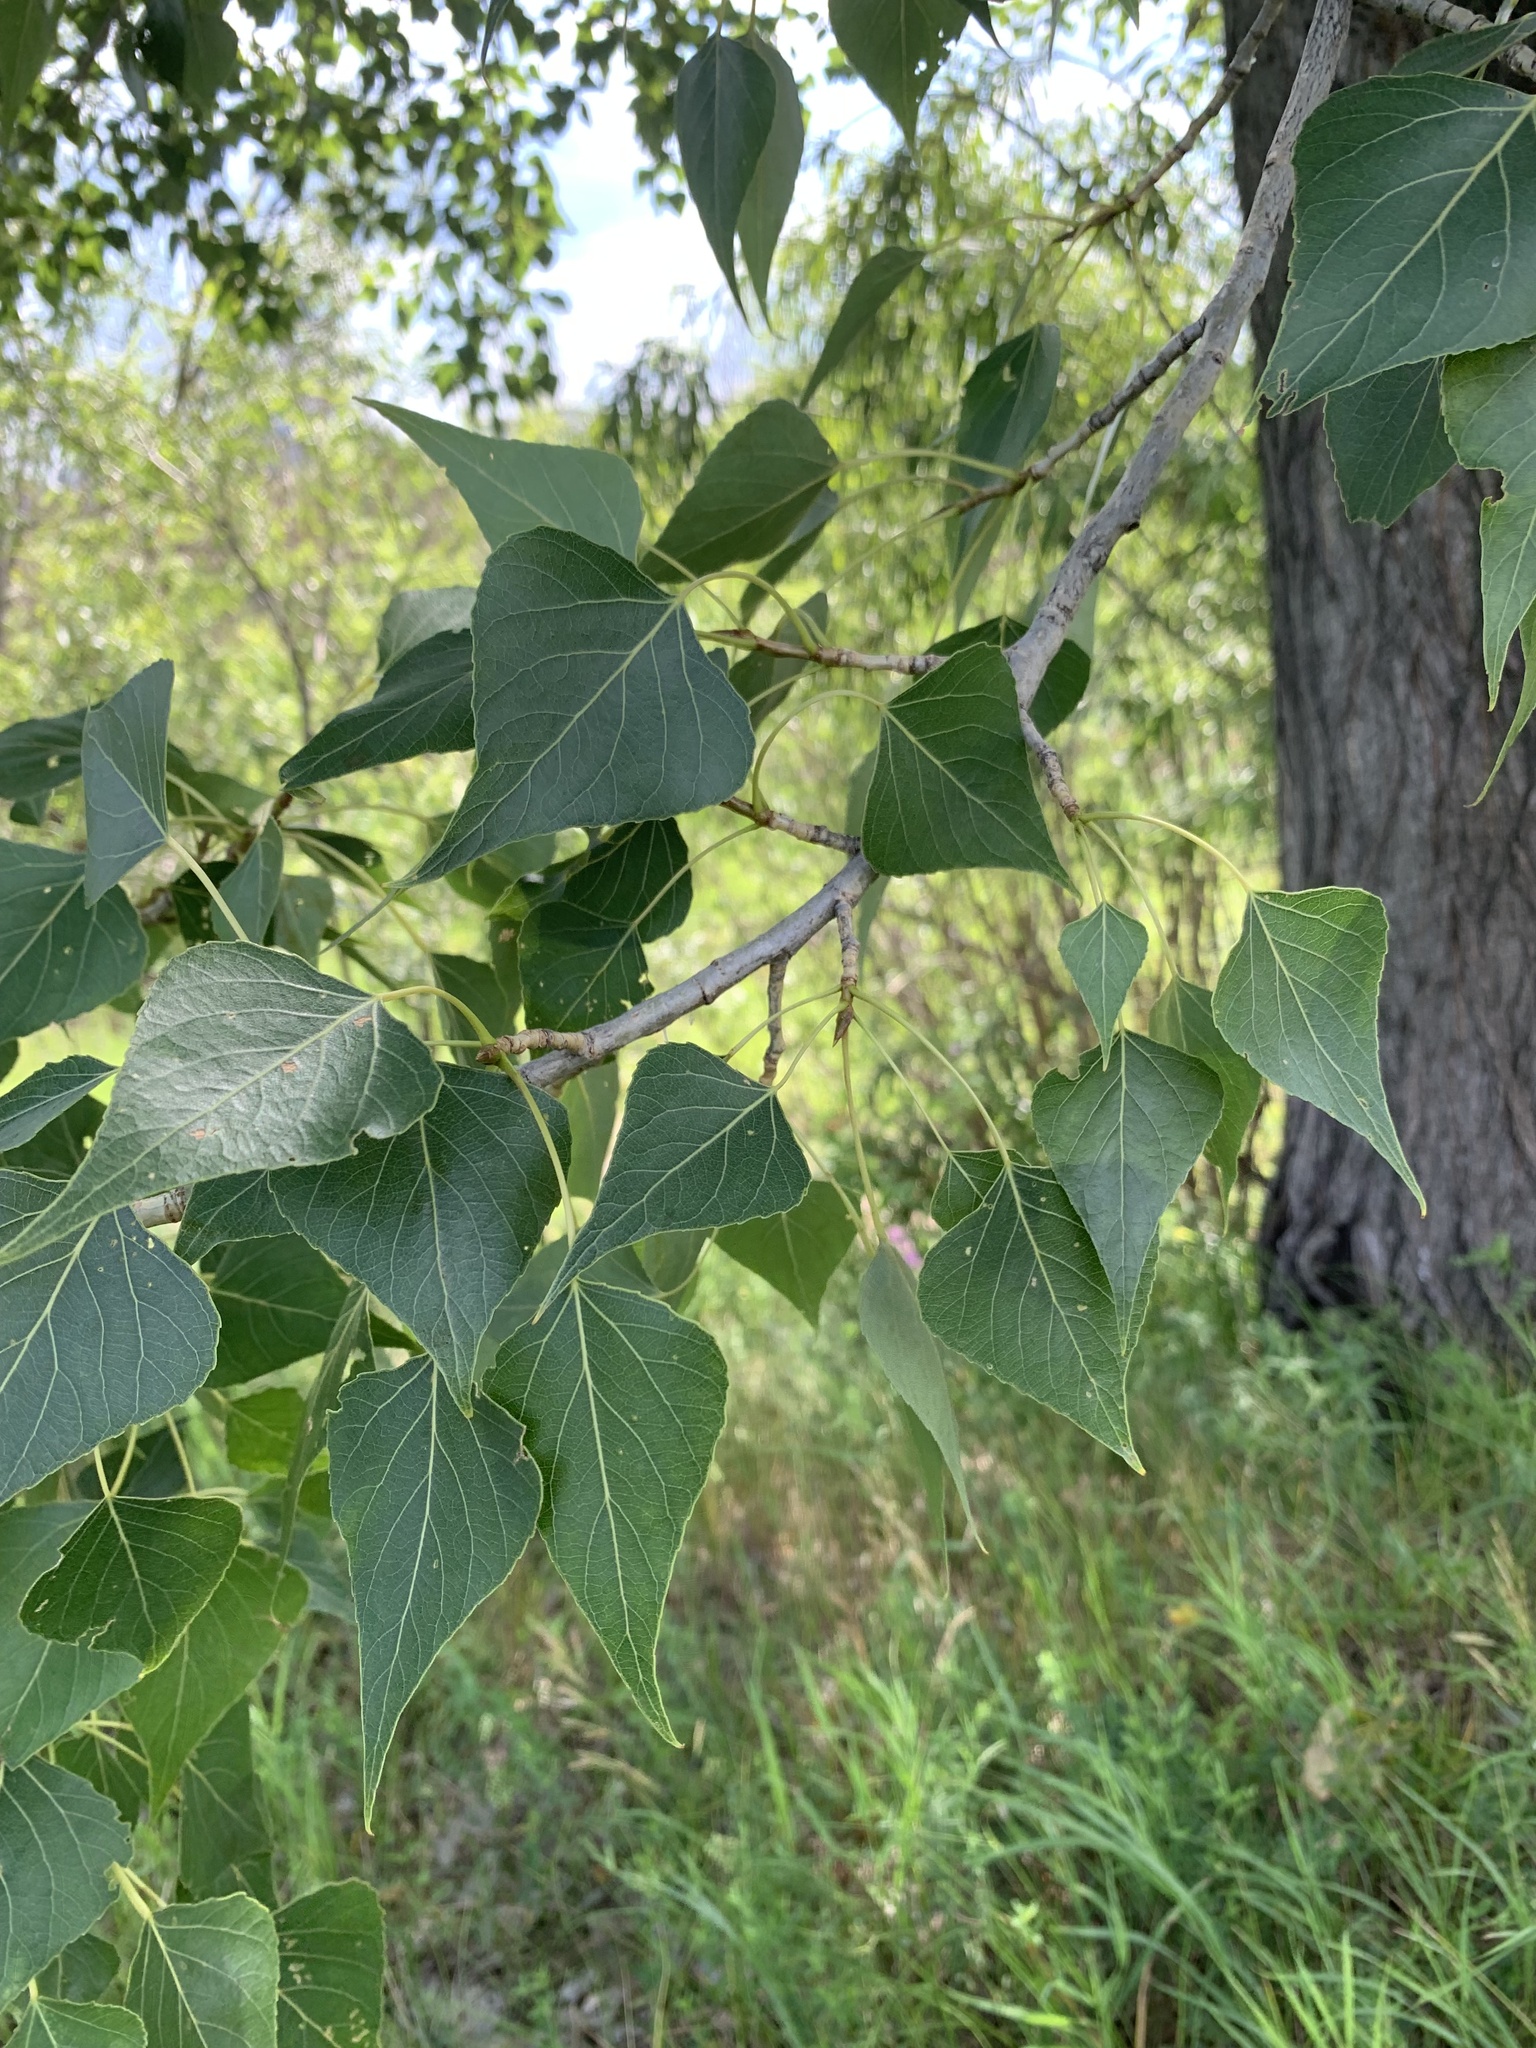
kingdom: Plantae
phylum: Tracheophyta
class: Magnoliopsida
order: Malpighiales
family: Salicaceae
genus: Populus
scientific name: Populus nigra
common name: Black poplar
